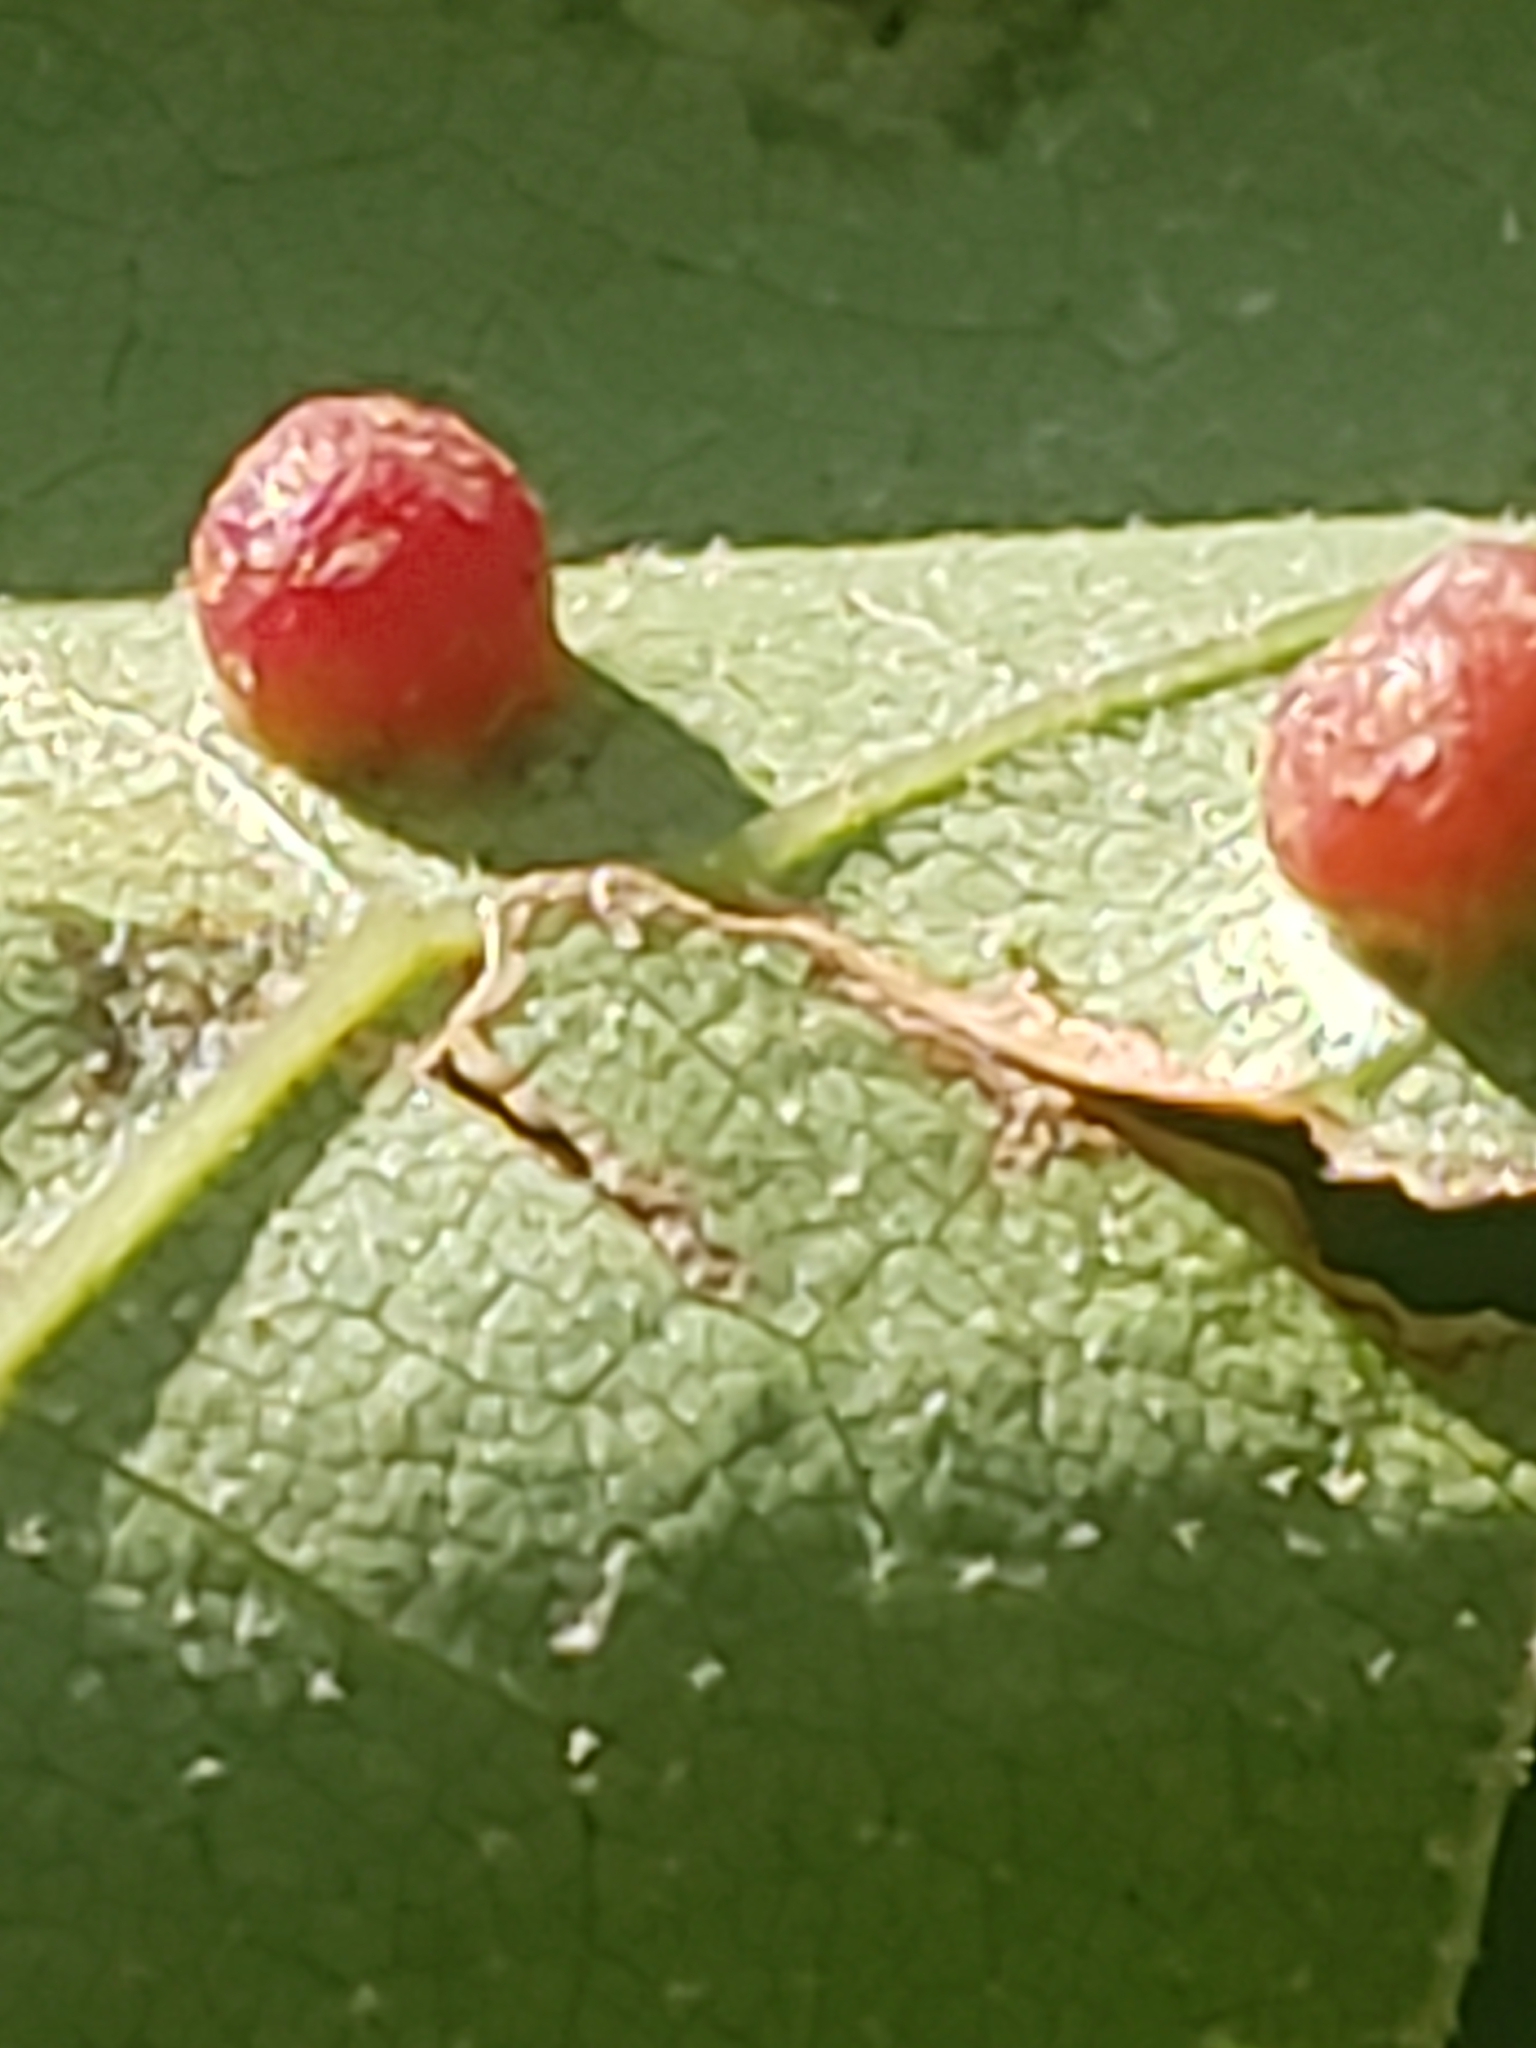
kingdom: Animalia
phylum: Arthropoda
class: Insecta
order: Diptera
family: Cecidomyiidae
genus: Polystepha
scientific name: Polystepha globosa
